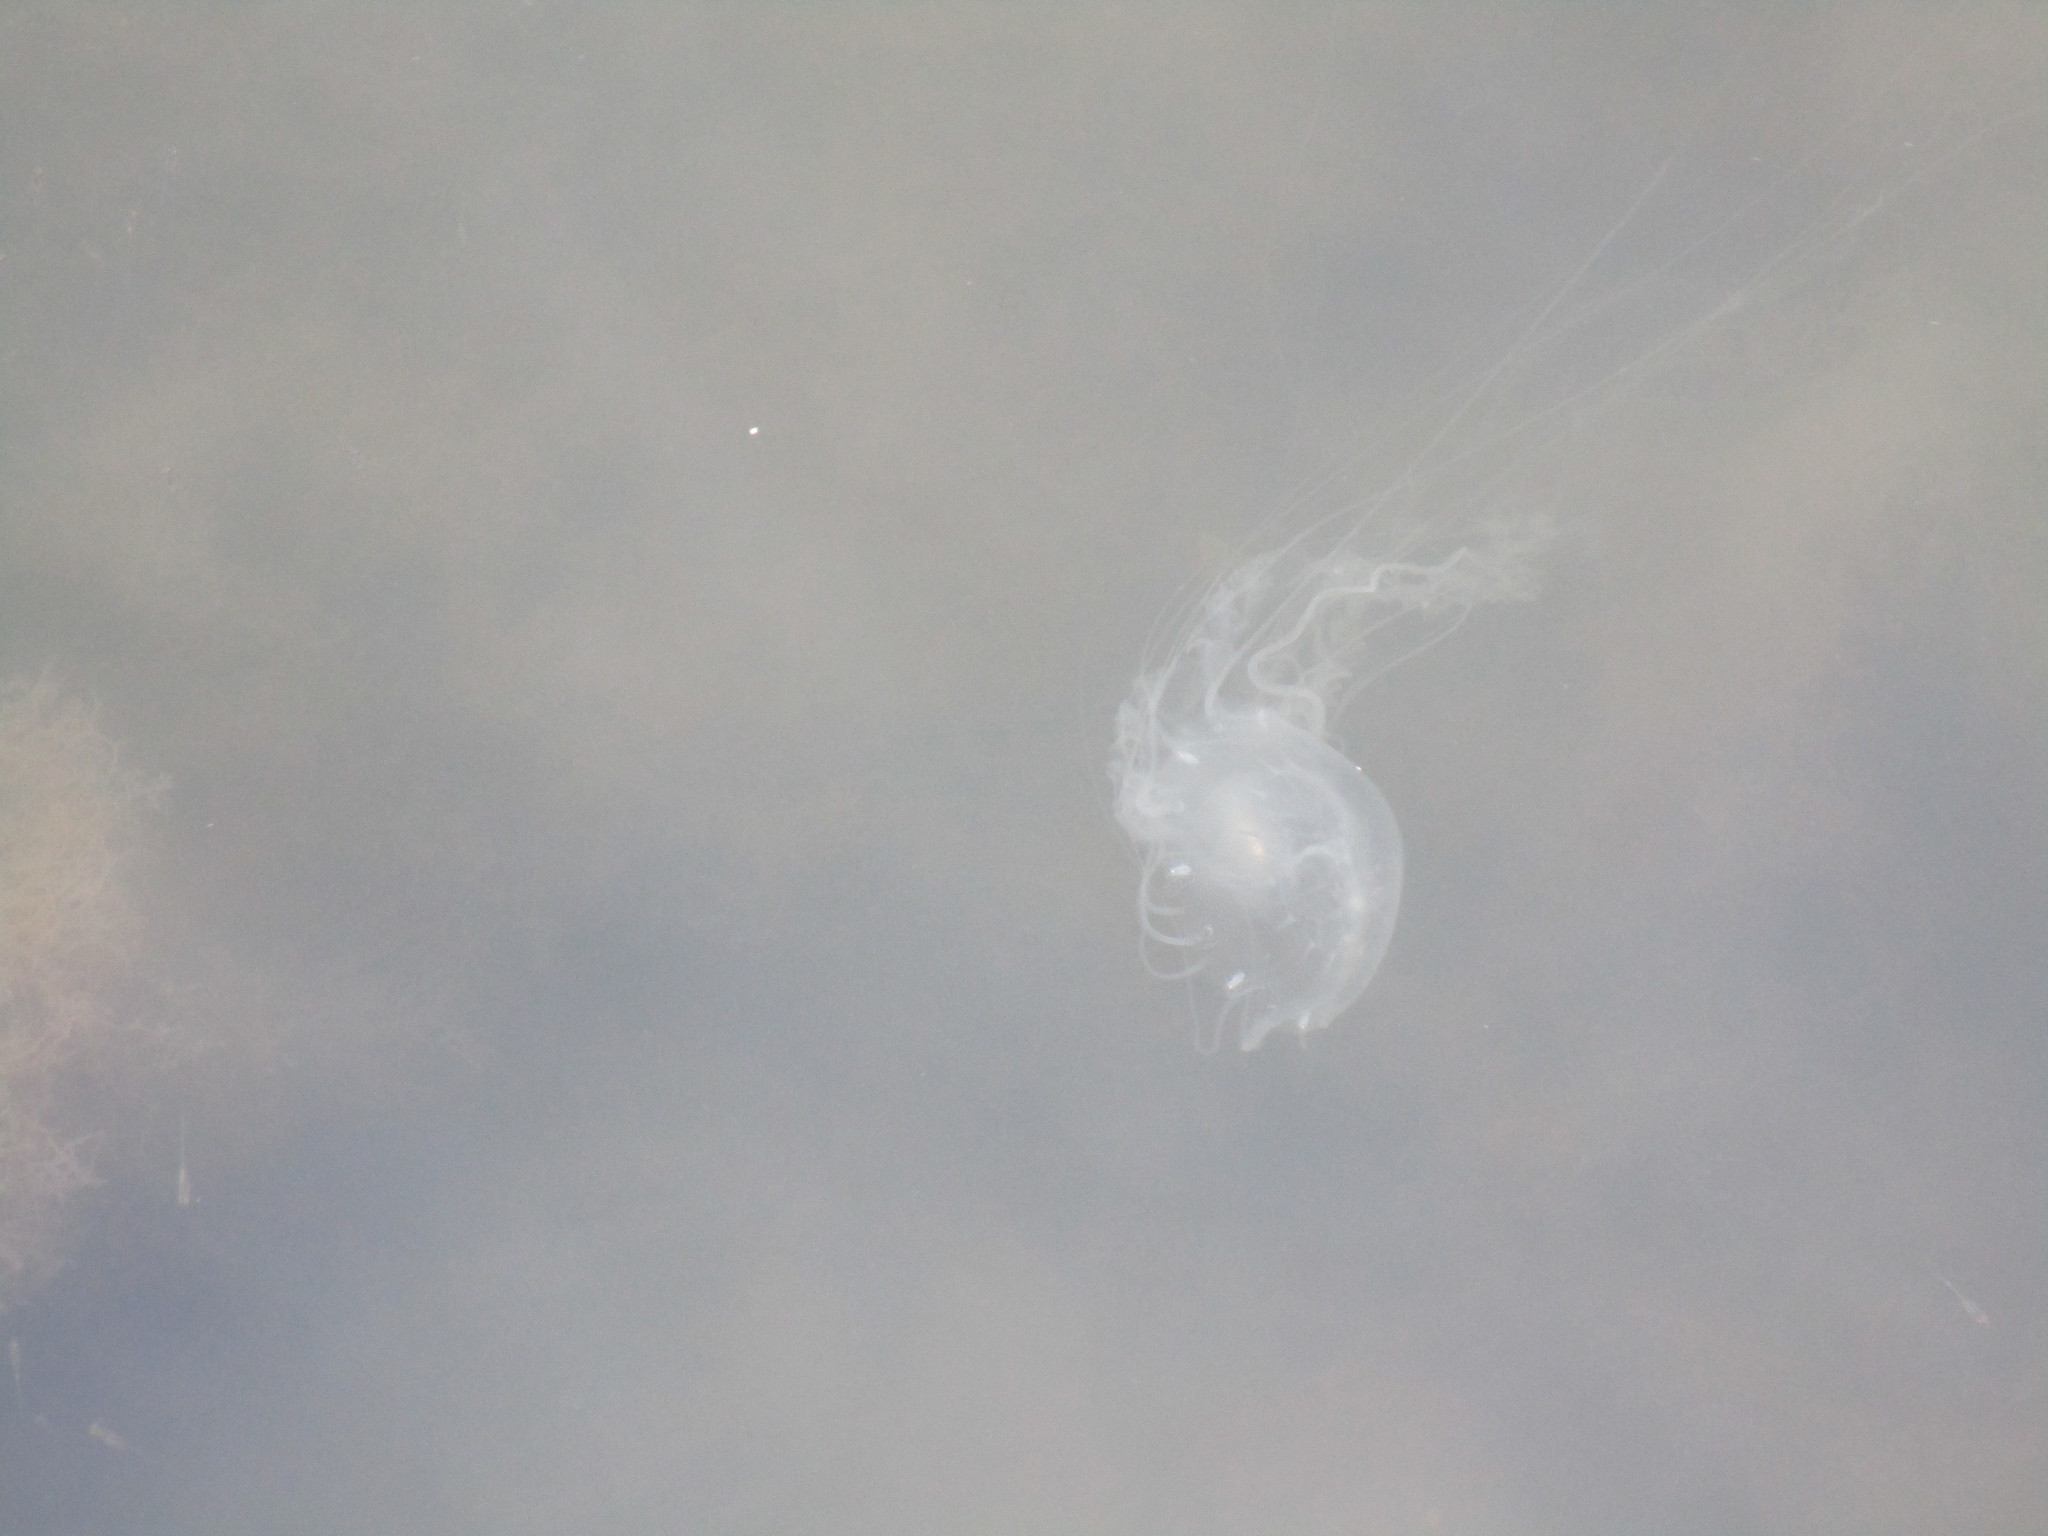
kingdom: Animalia
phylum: Cnidaria
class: Scyphozoa
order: Semaeostomeae
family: Pelagiidae
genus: Chrysaora
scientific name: Chrysaora chesapeakei
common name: Bay nettle
